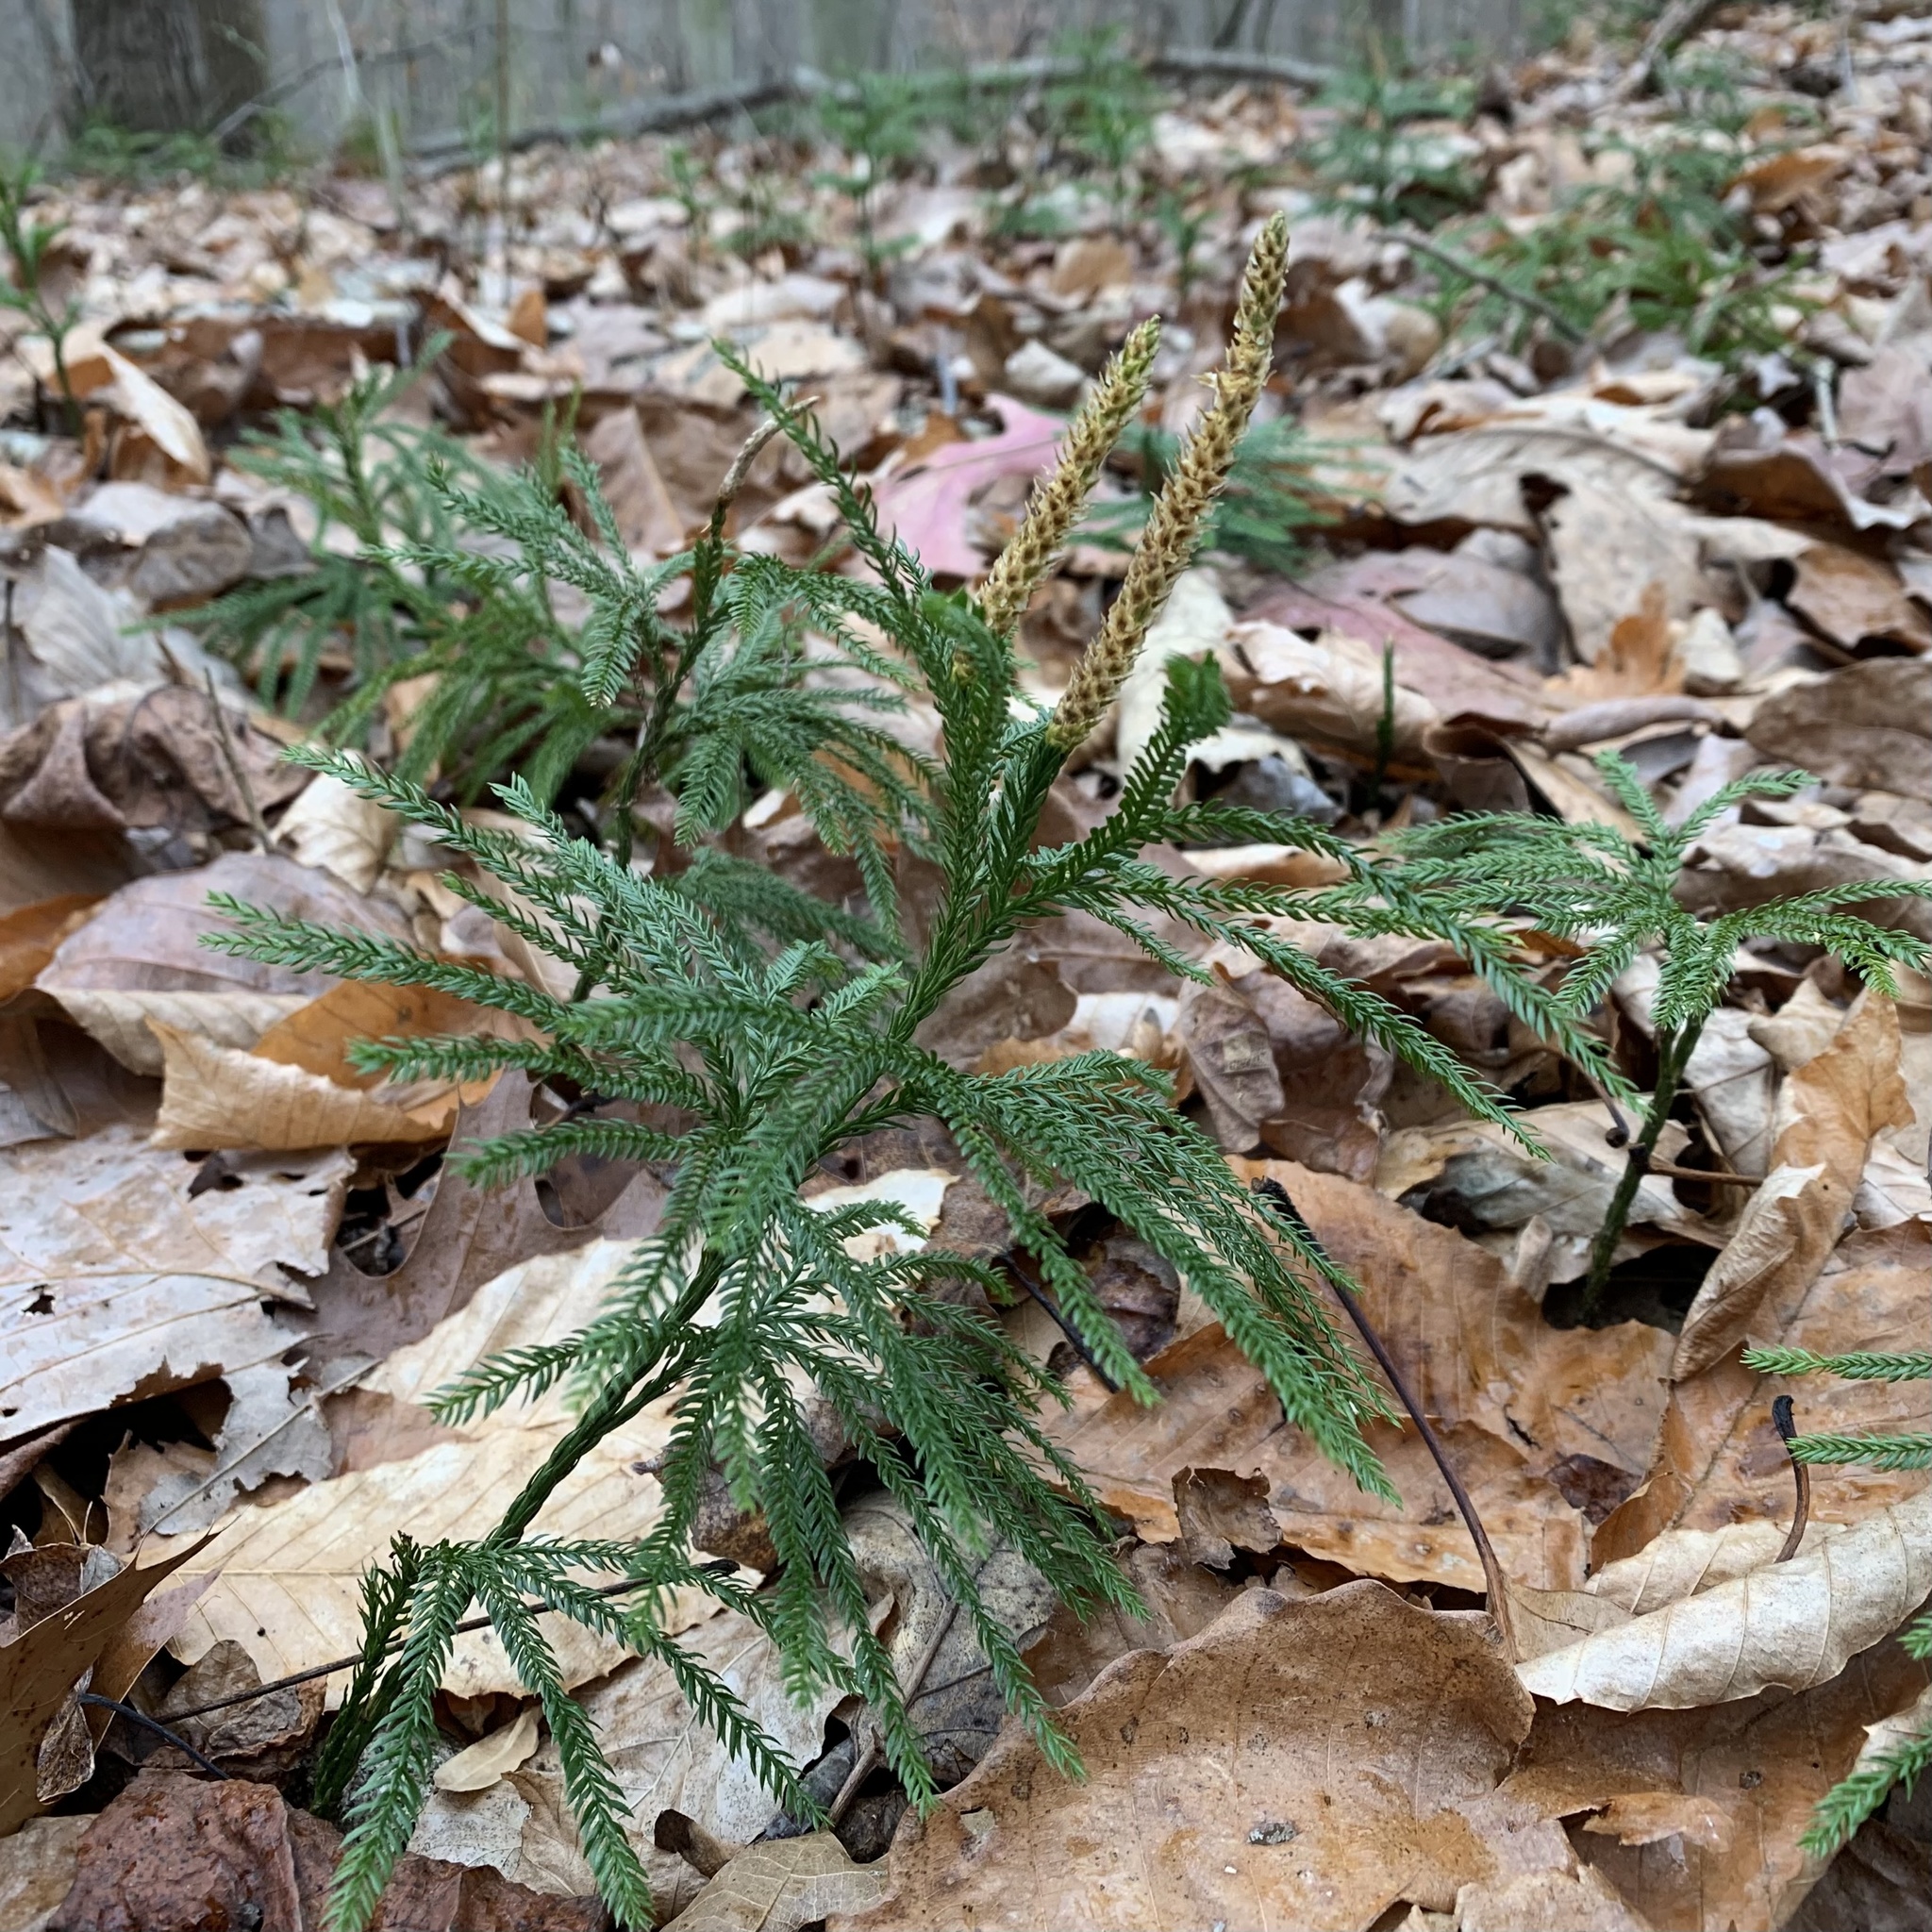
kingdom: Plantae
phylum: Tracheophyta
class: Lycopodiopsida
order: Lycopodiales
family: Lycopodiaceae
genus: Dendrolycopodium
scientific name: Dendrolycopodium obscurum
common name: Common ground-pine
